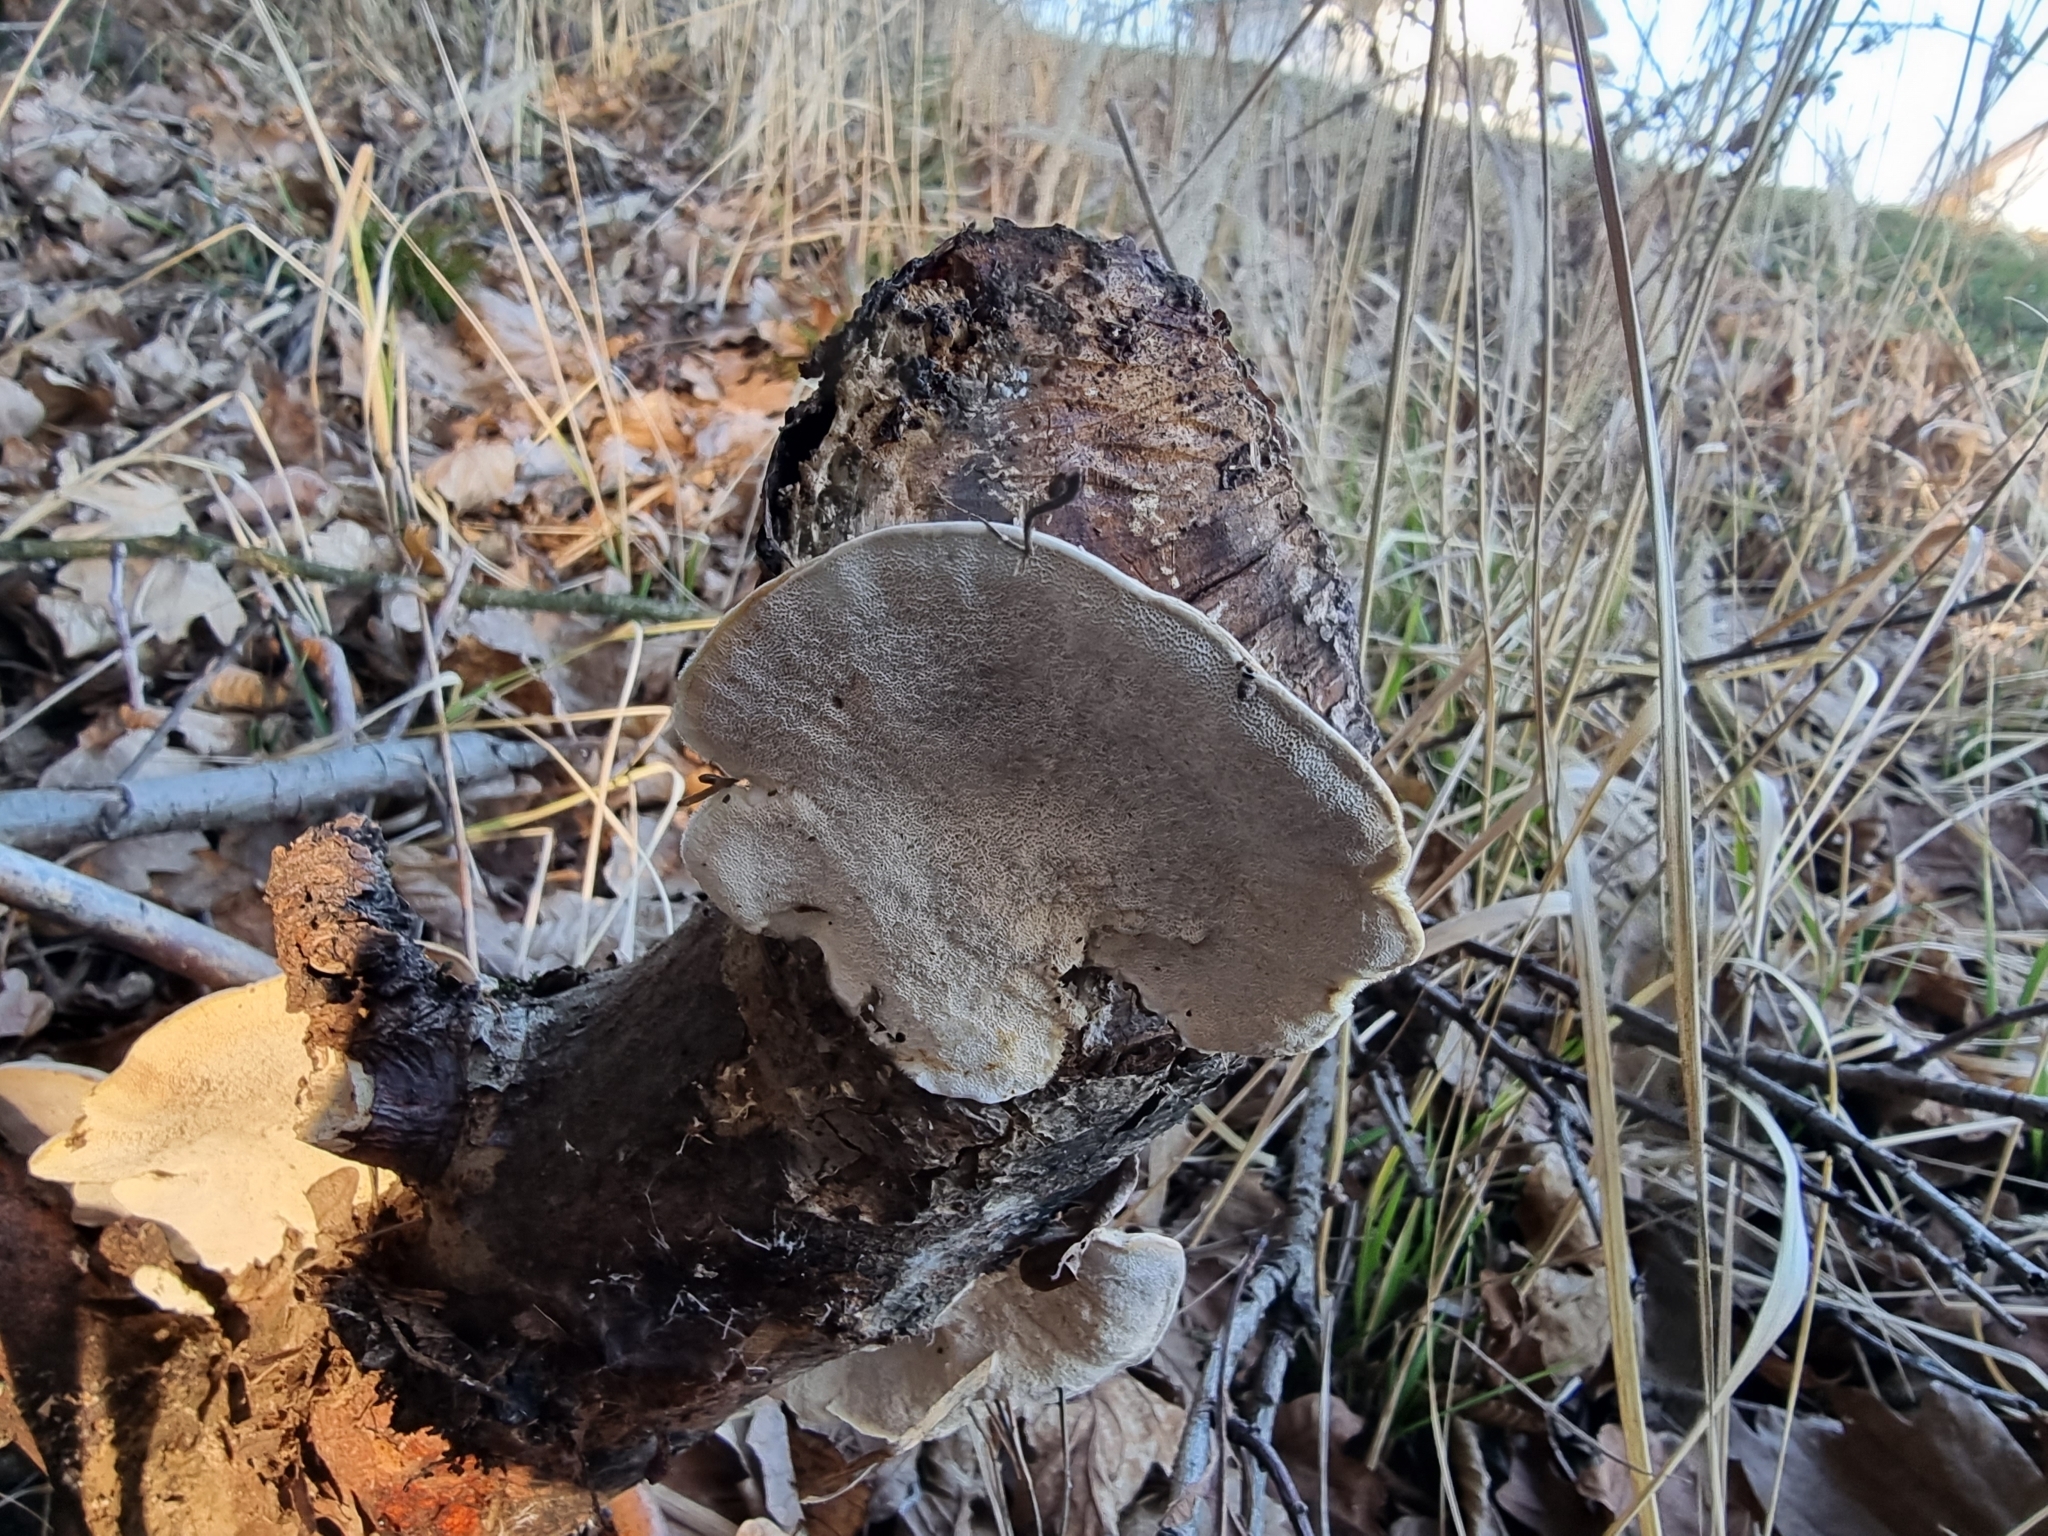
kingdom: Fungi
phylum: Basidiomycota
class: Agaricomycetes
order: Polyporales
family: Cerrenaceae
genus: Cerrena
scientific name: Cerrena unicolor
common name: Mossy maze polypore
